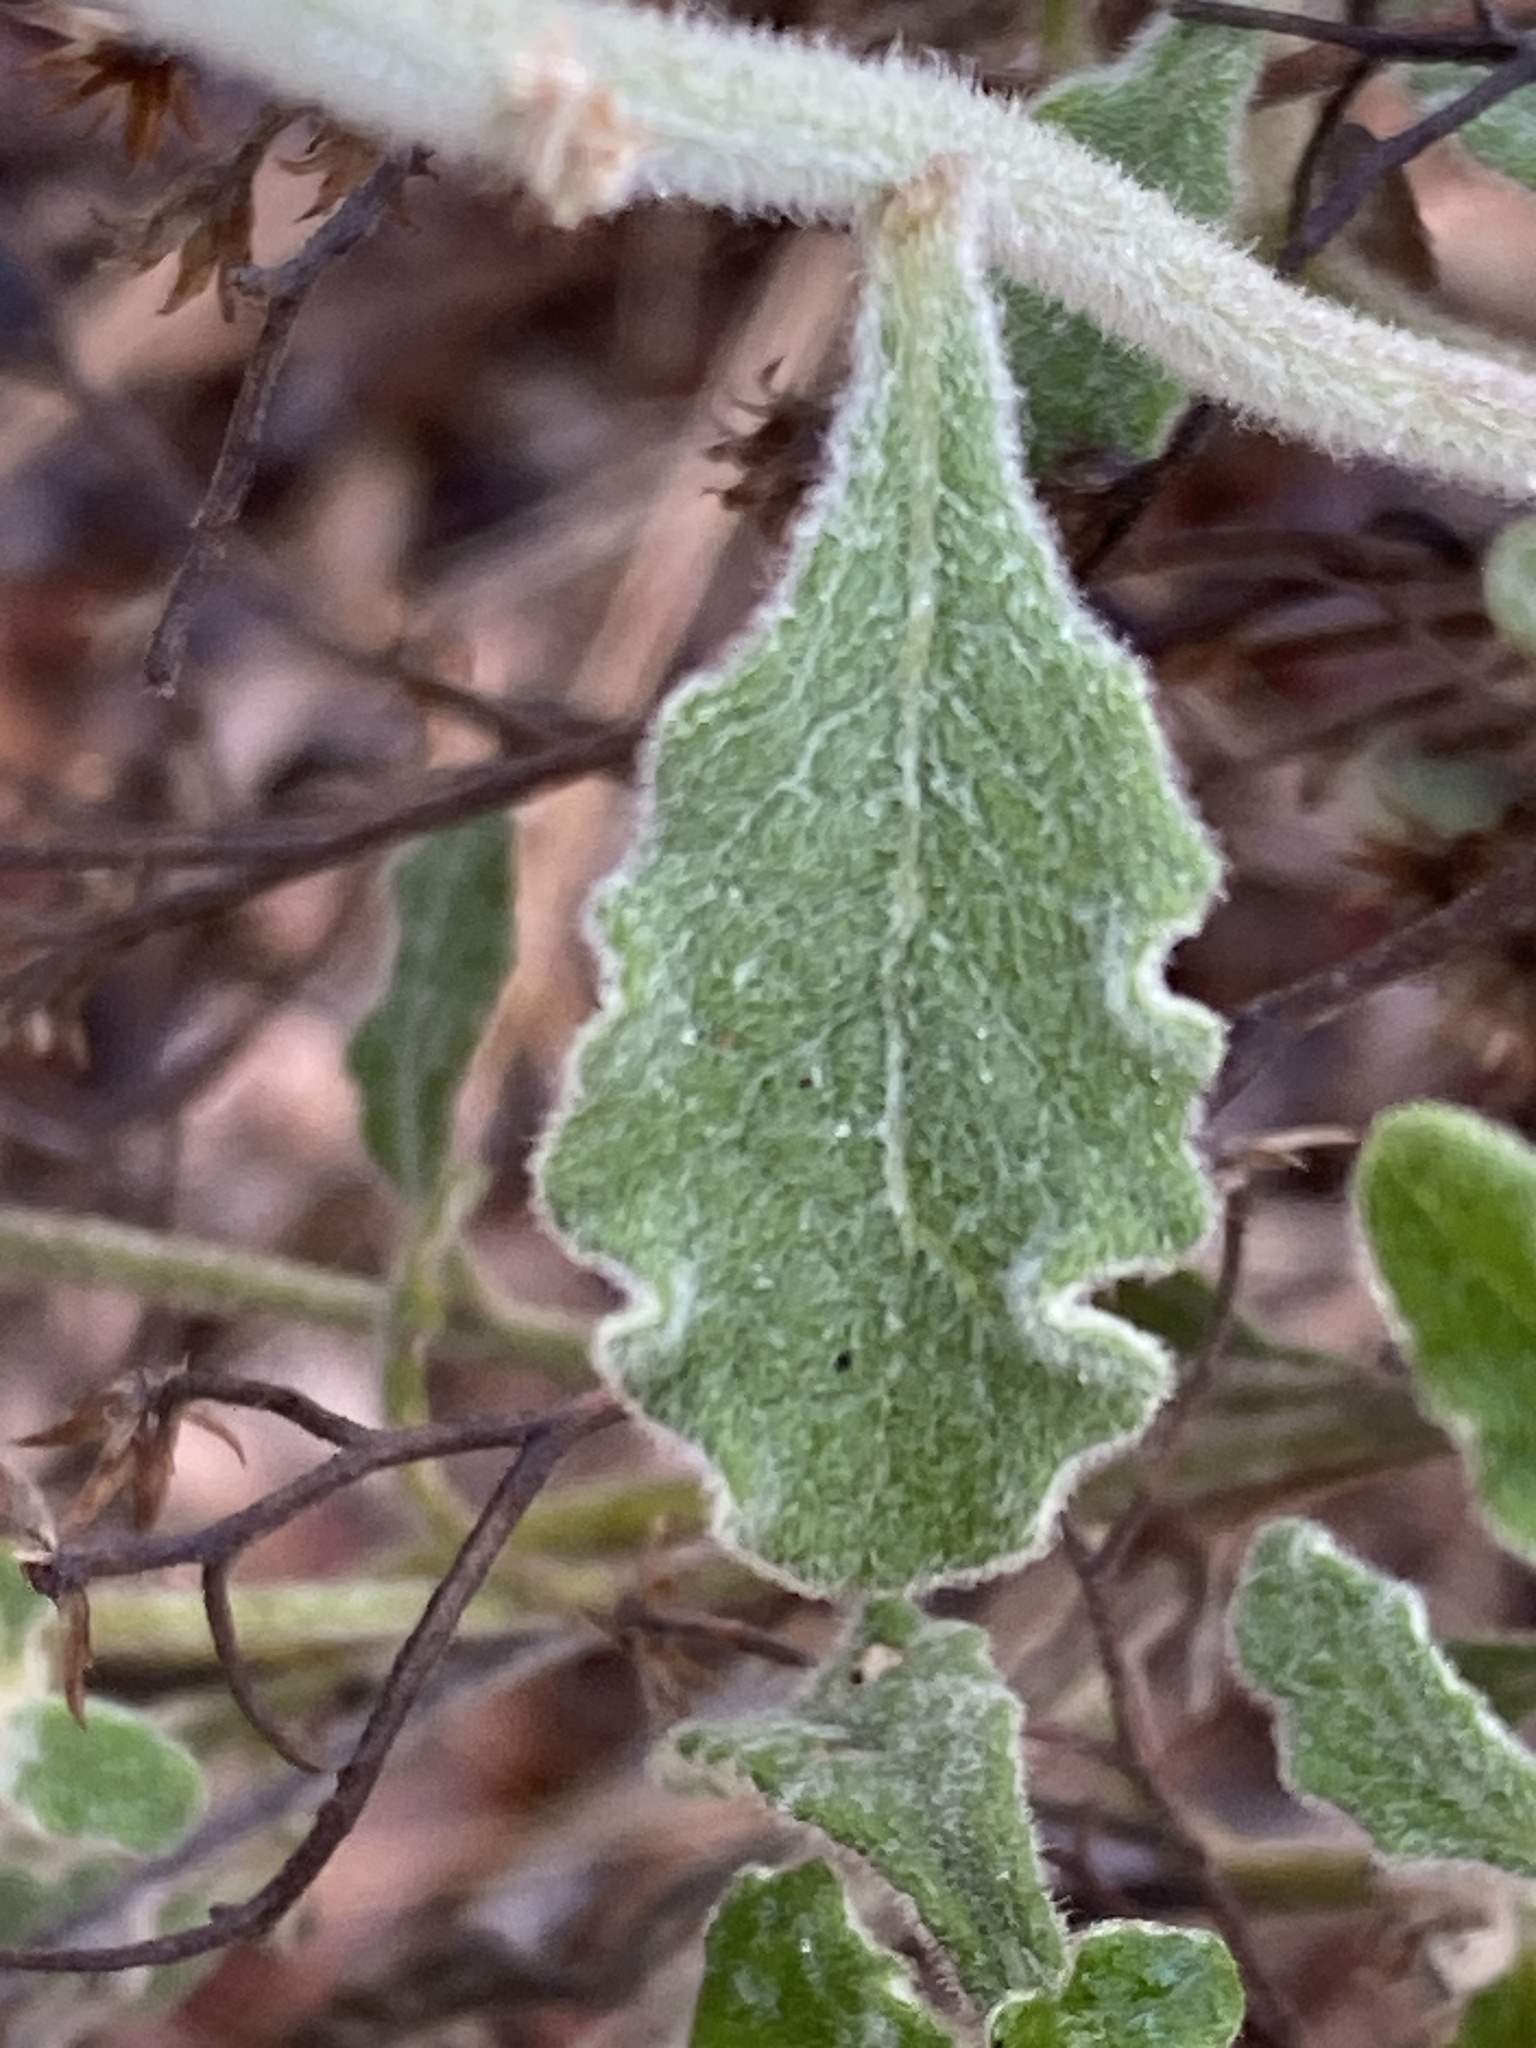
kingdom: Plantae
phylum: Tracheophyta
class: Magnoliopsida
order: Asterales
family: Asteraceae
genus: Cyanthillium
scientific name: Cyanthillium cinereum
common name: Little ironweed
